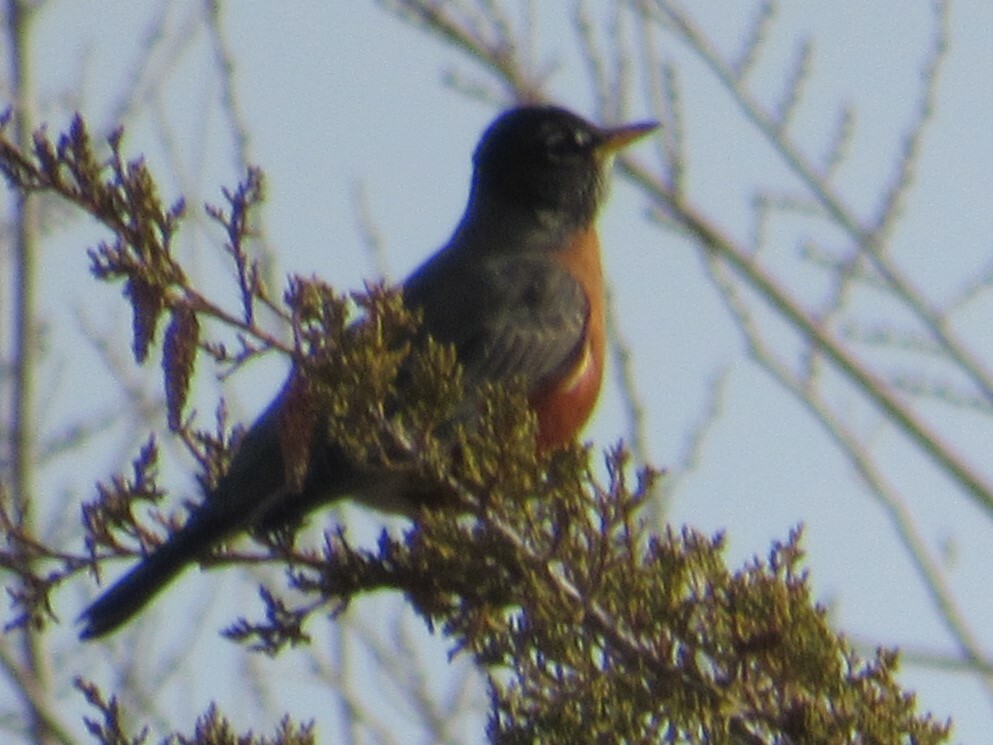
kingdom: Animalia
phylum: Chordata
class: Aves
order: Passeriformes
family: Turdidae
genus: Turdus
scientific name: Turdus migratorius
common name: American robin
